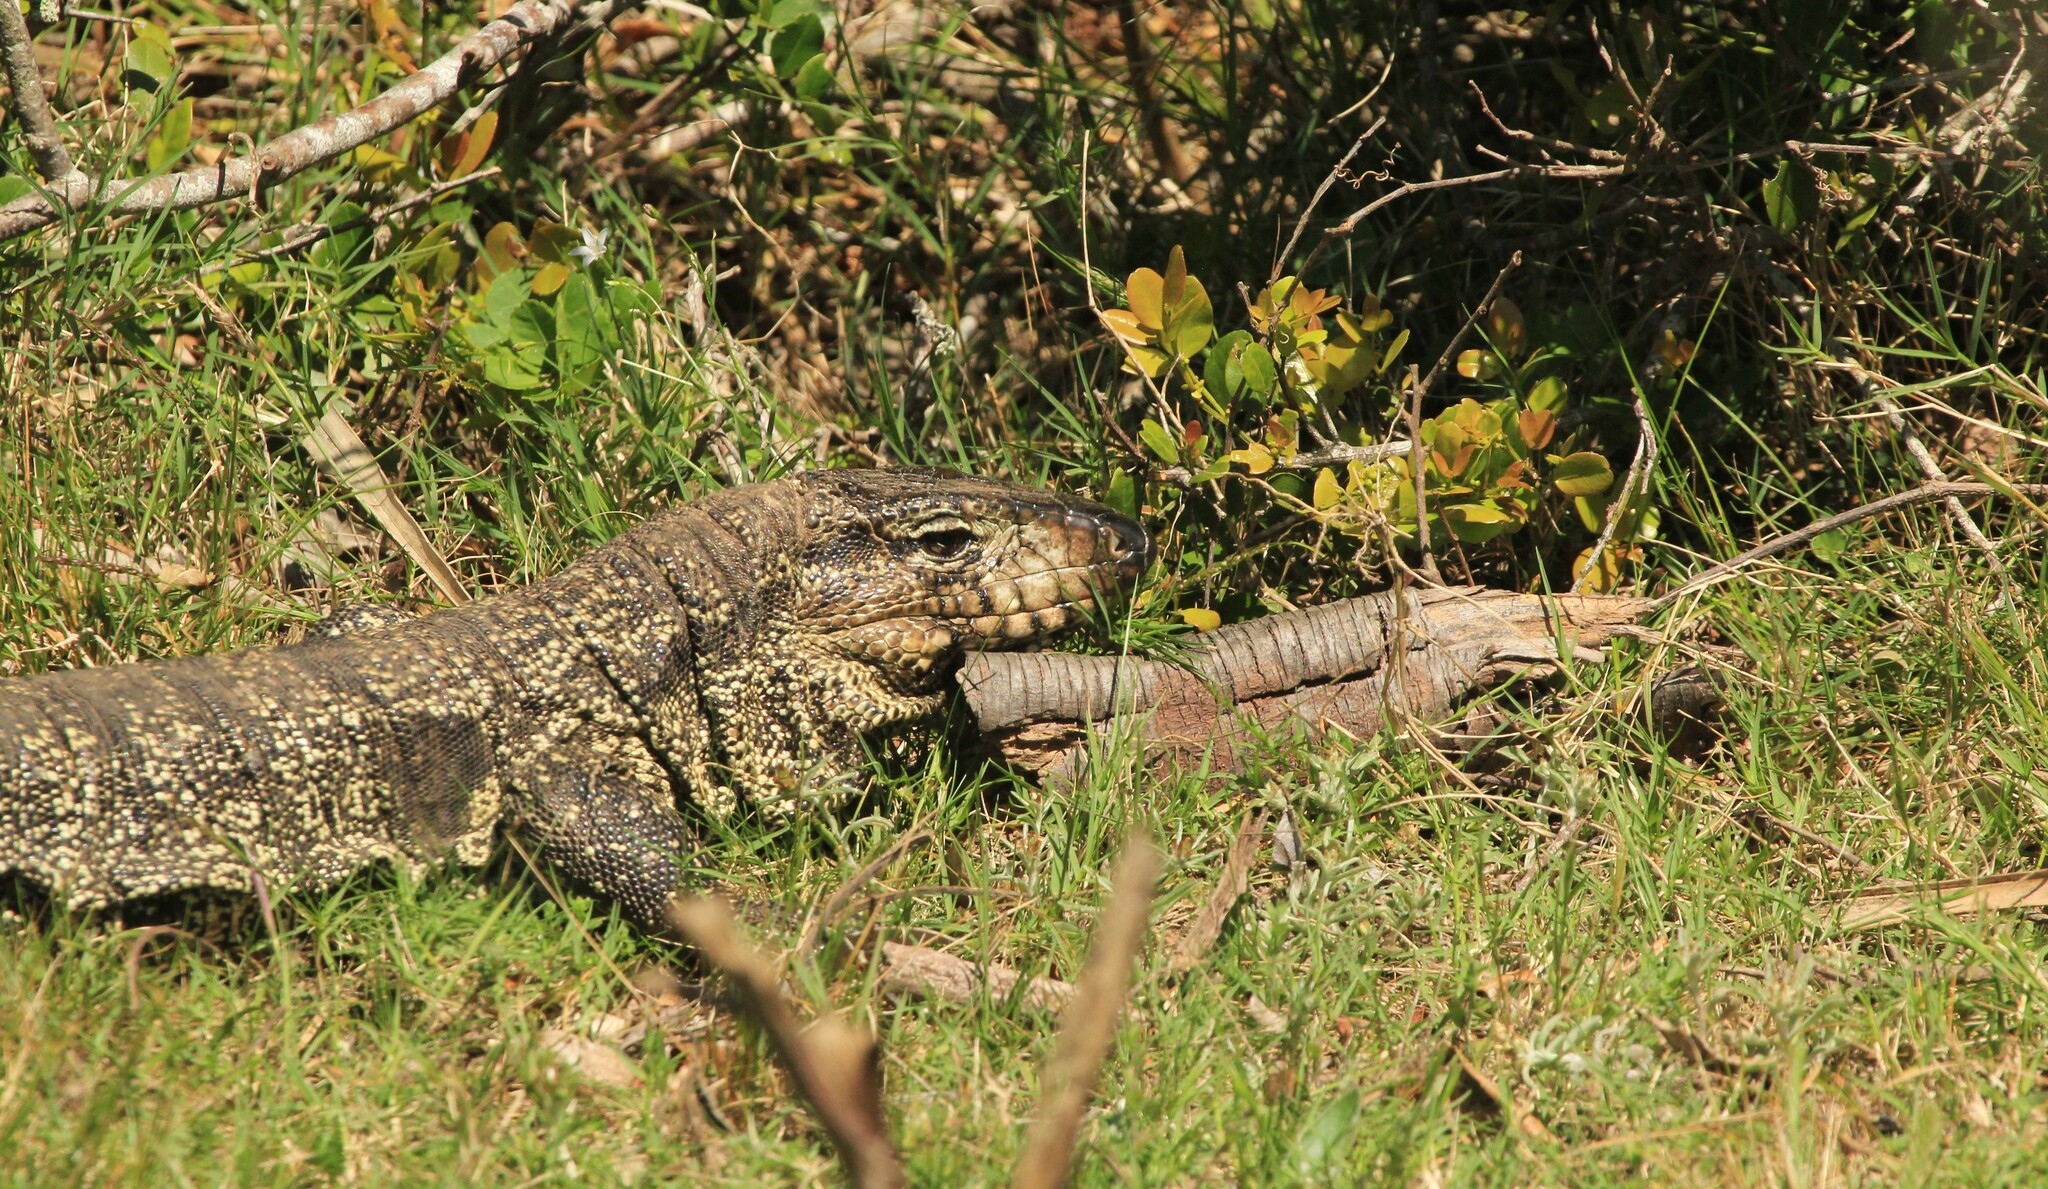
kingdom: Animalia
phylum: Chordata
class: Squamata
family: Teiidae
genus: Salvator
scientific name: Salvator merianae
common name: Argentine black and white tegu
